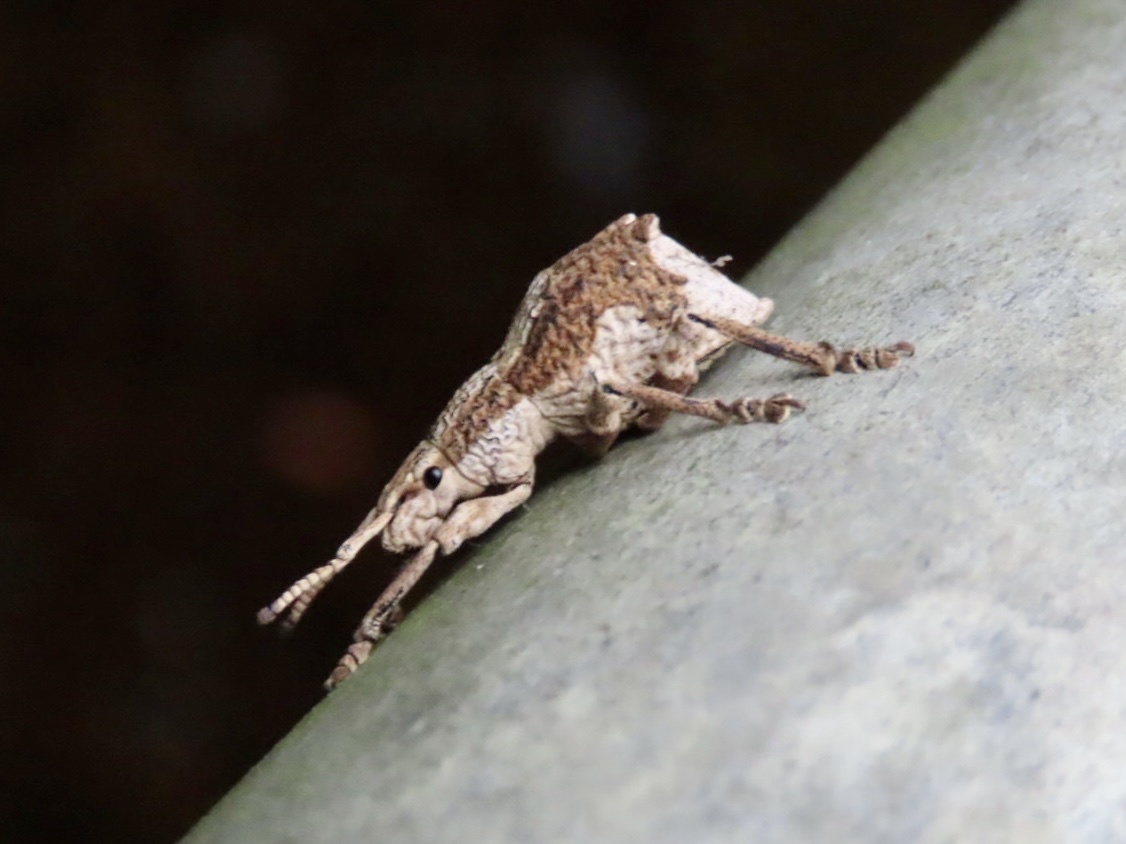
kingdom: Animalia
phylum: Arthropoda
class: Insecta
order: Coleoptera
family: Curculionidae
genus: Episomus
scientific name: Episomus
